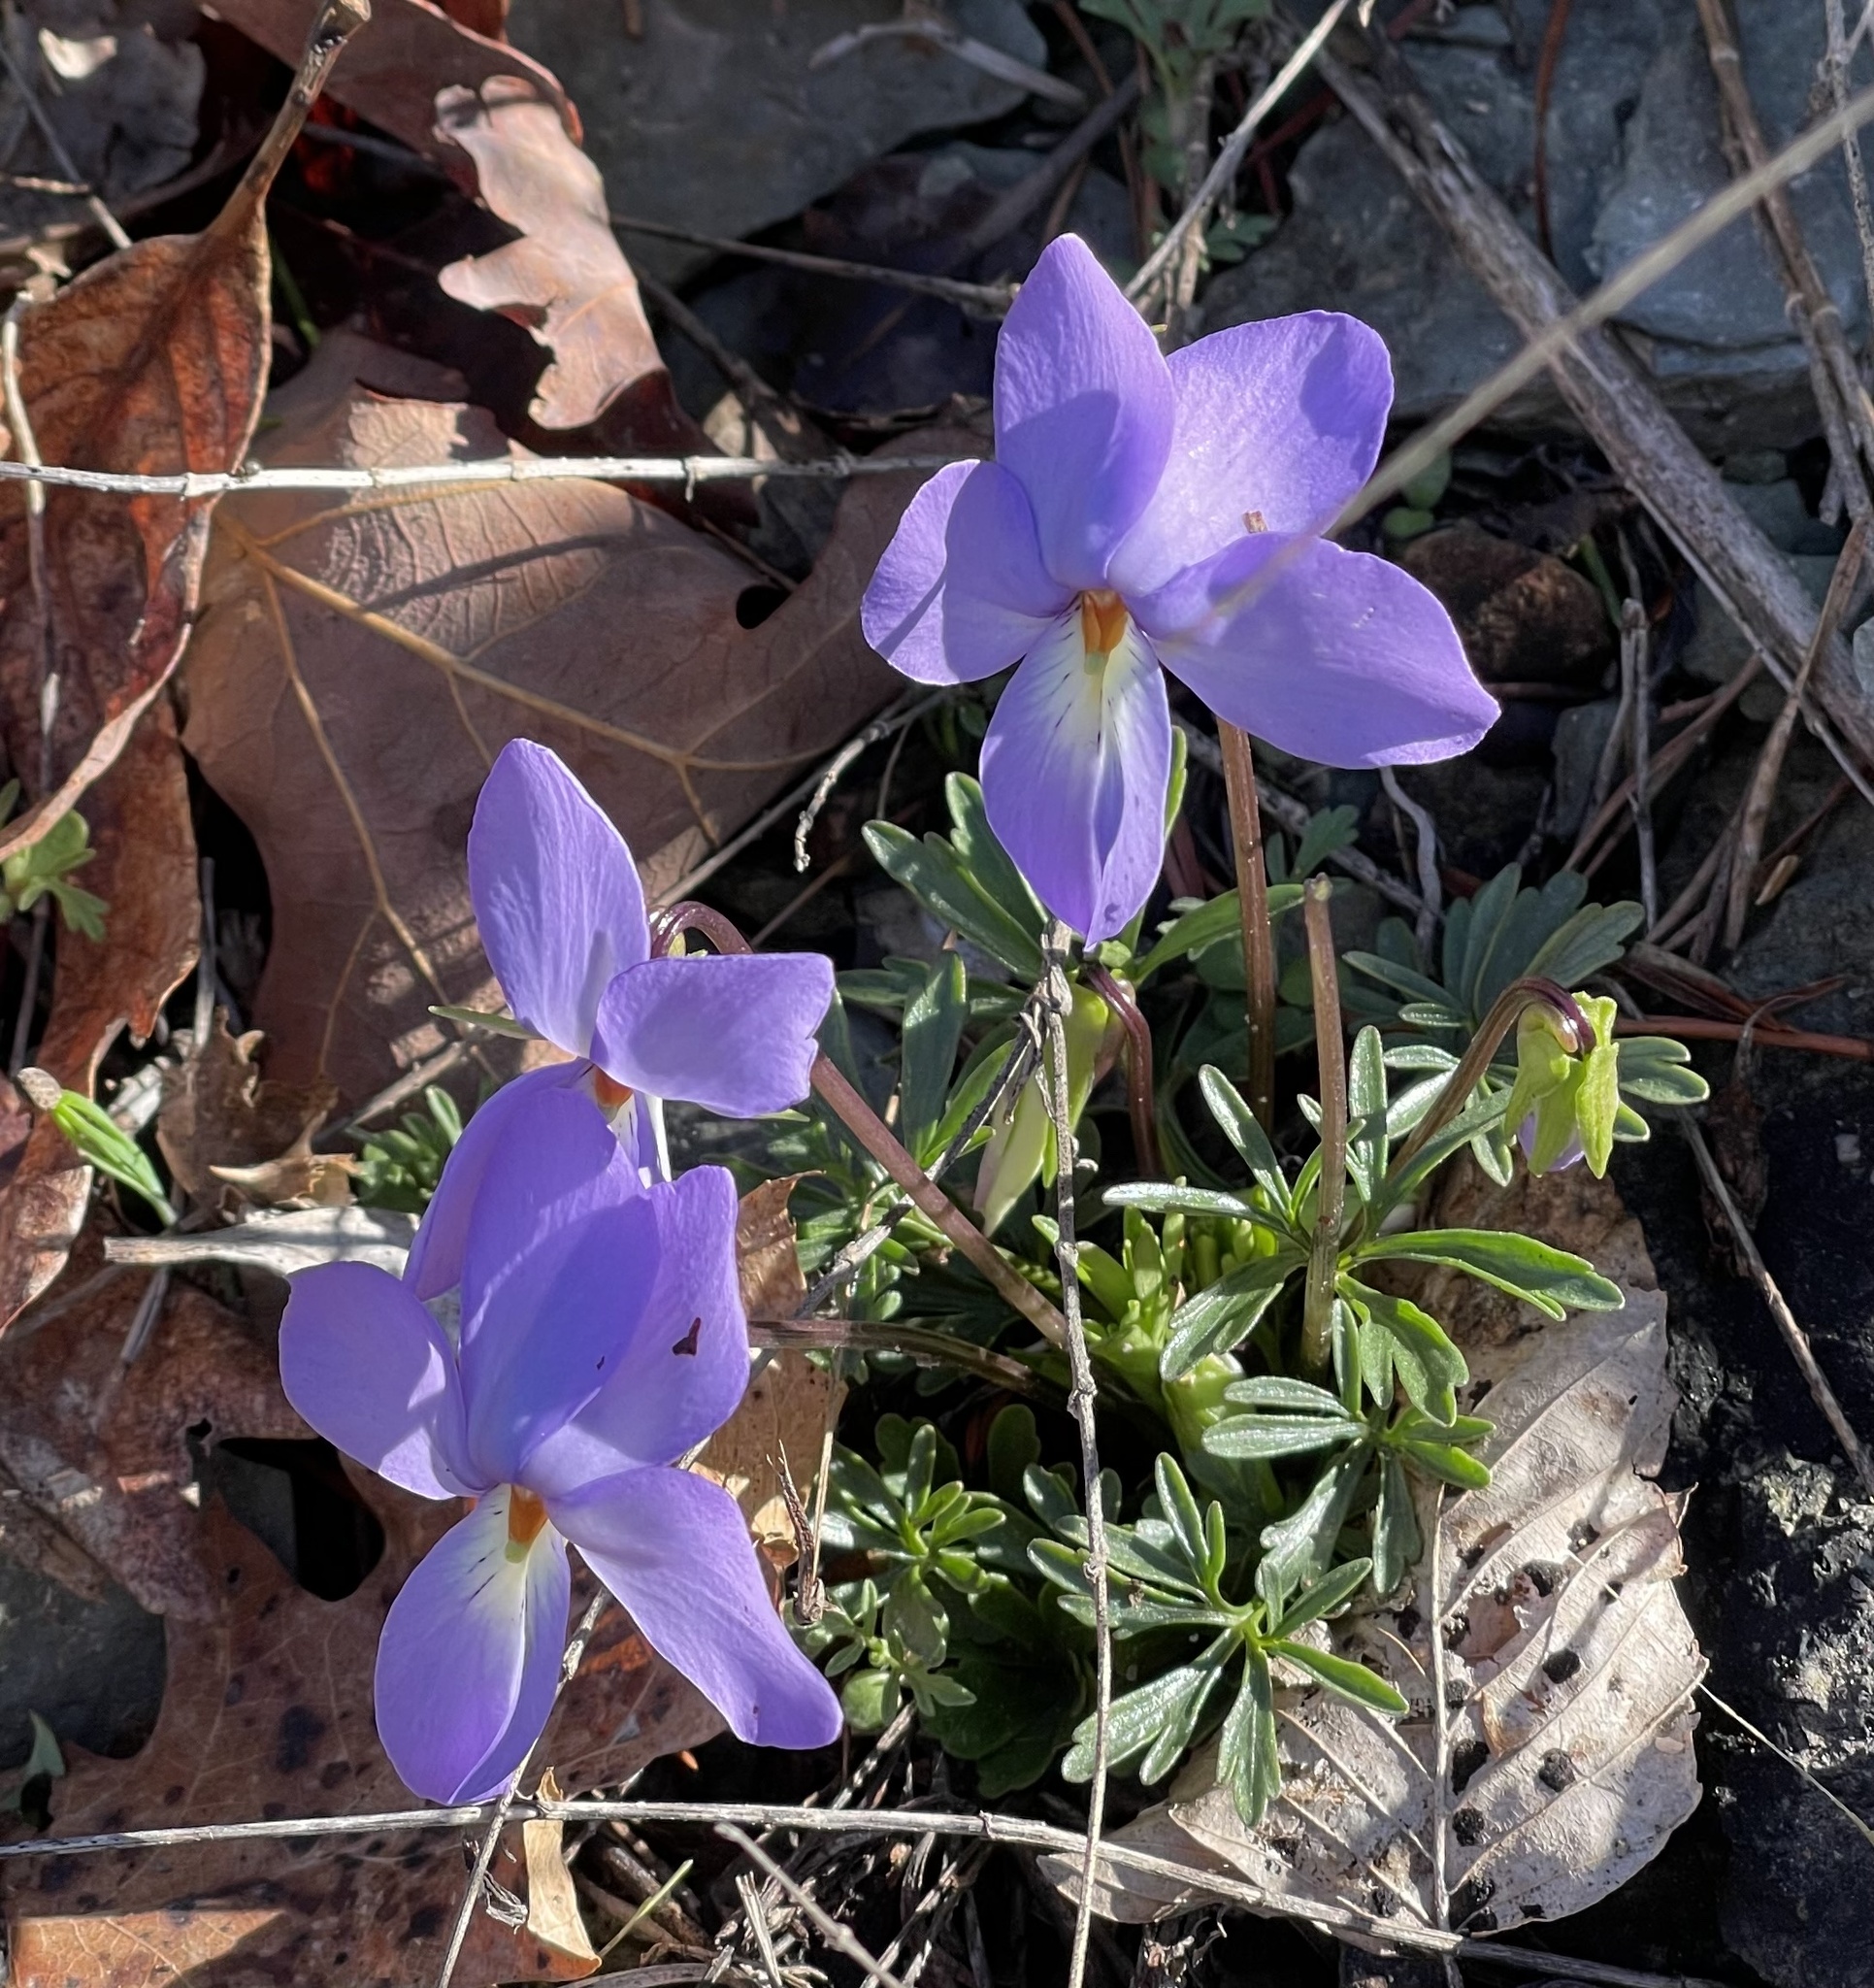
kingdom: Plantae
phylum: Tracheophyta
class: Magnoliopsida
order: Malpighiales
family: Violaceae
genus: Viola
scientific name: Viola pedata
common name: Pansy violet
